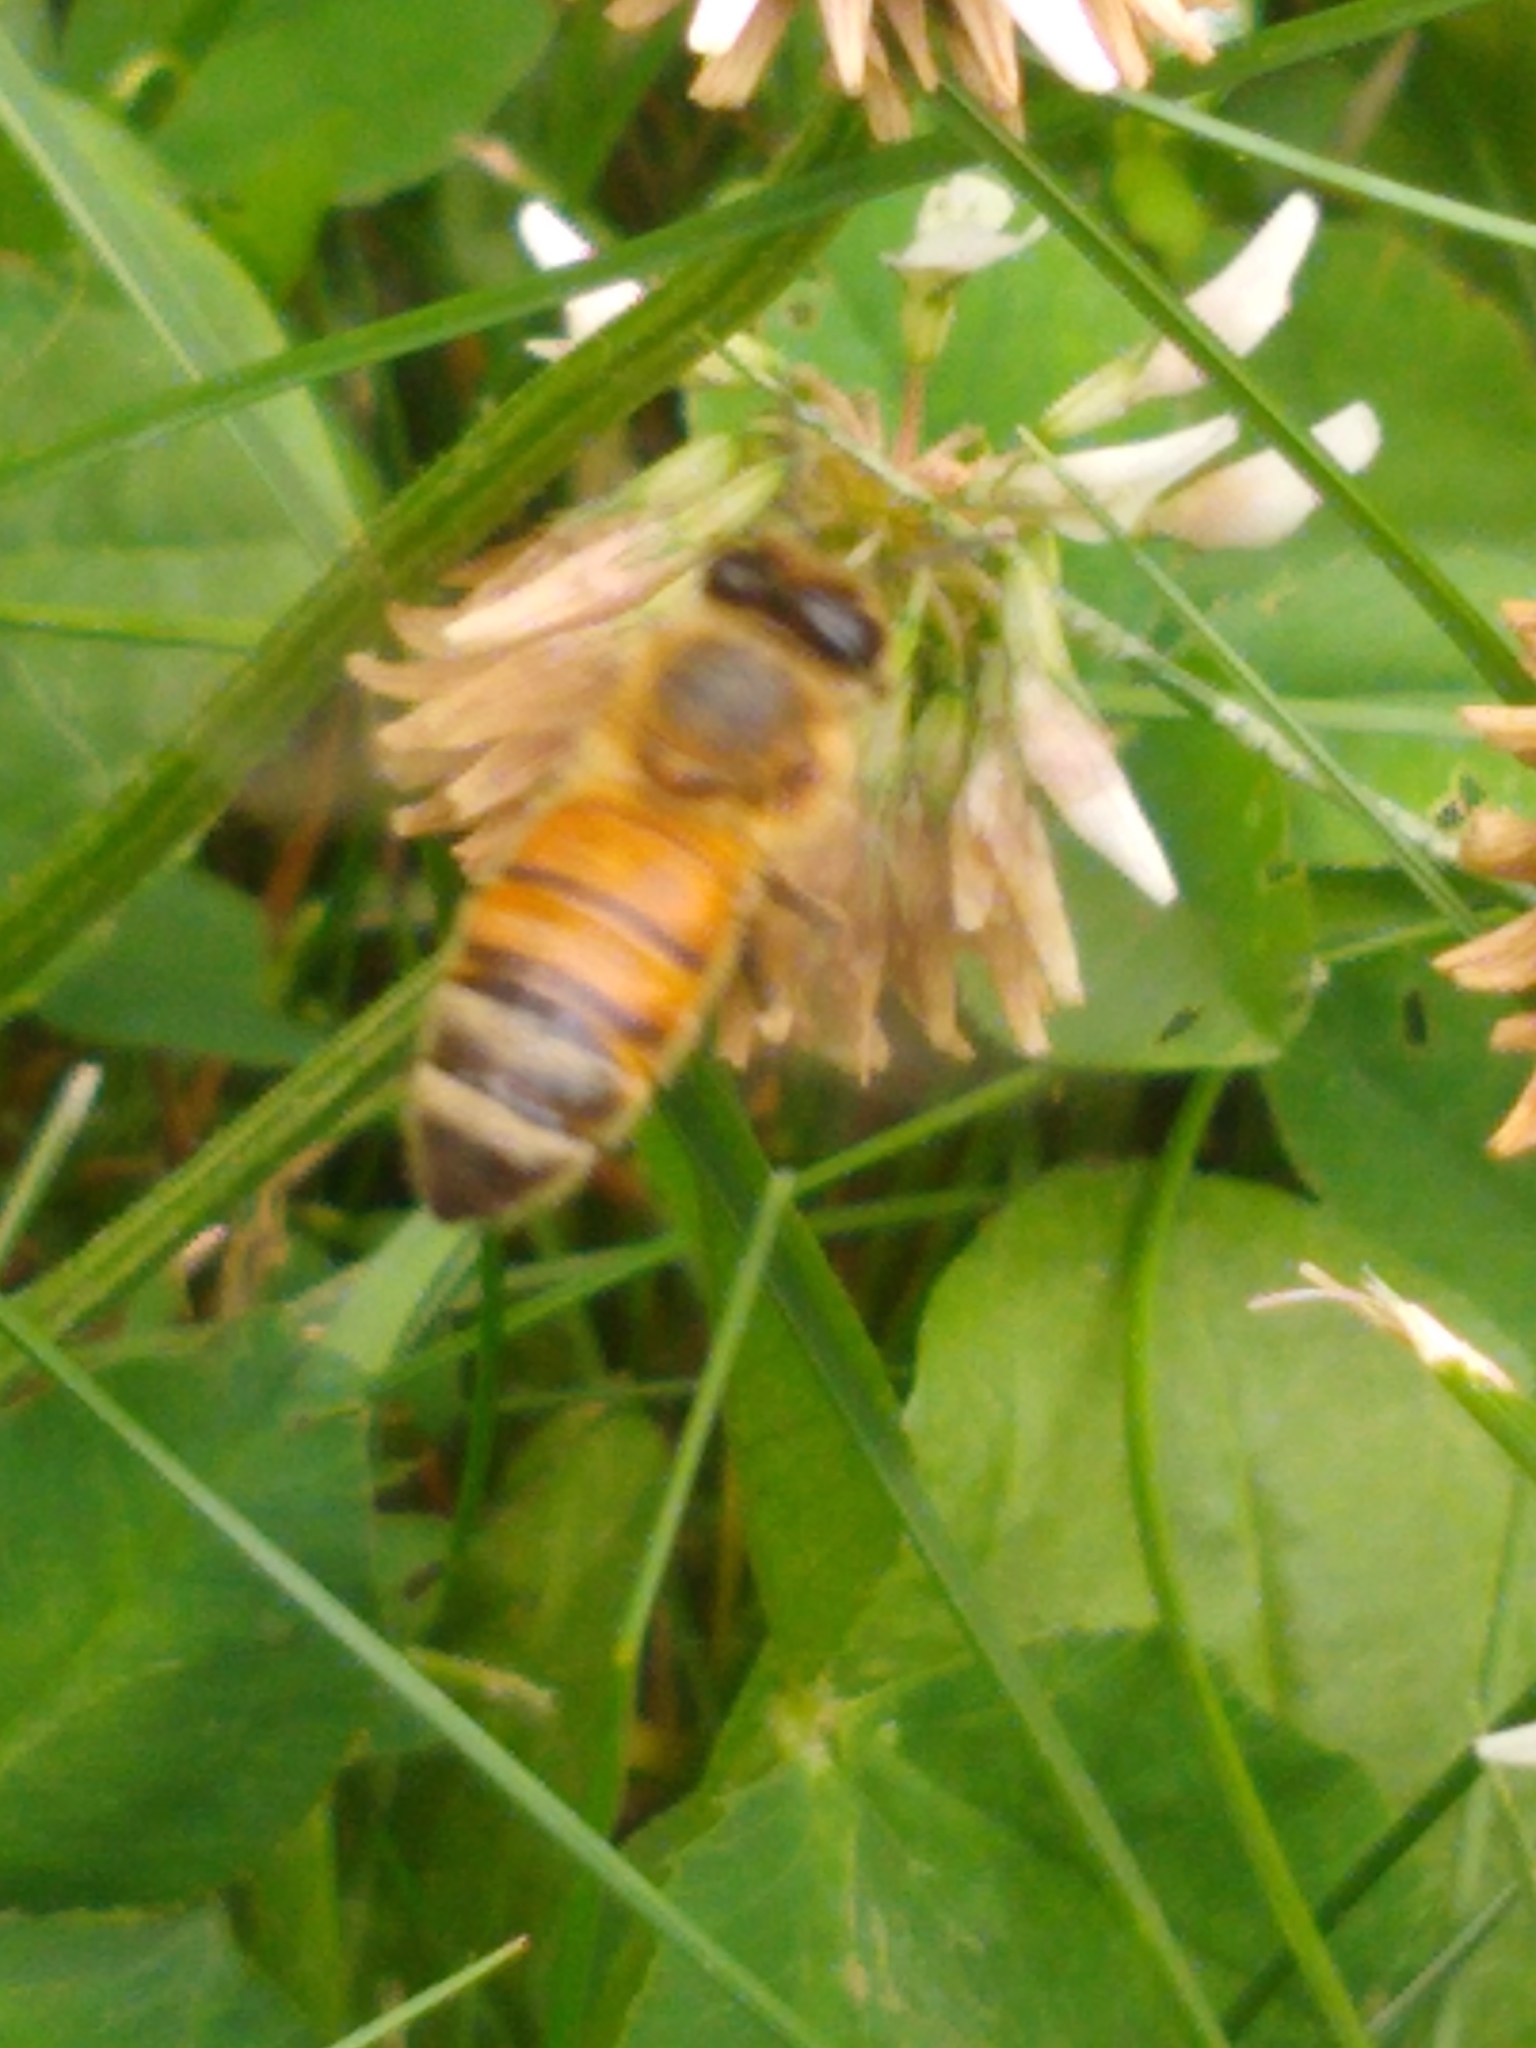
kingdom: Animalia
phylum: Arthropoda
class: Insecta
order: Hymenoptera
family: Apidae
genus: Apis
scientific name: Apis mellifera
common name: Honey bee
